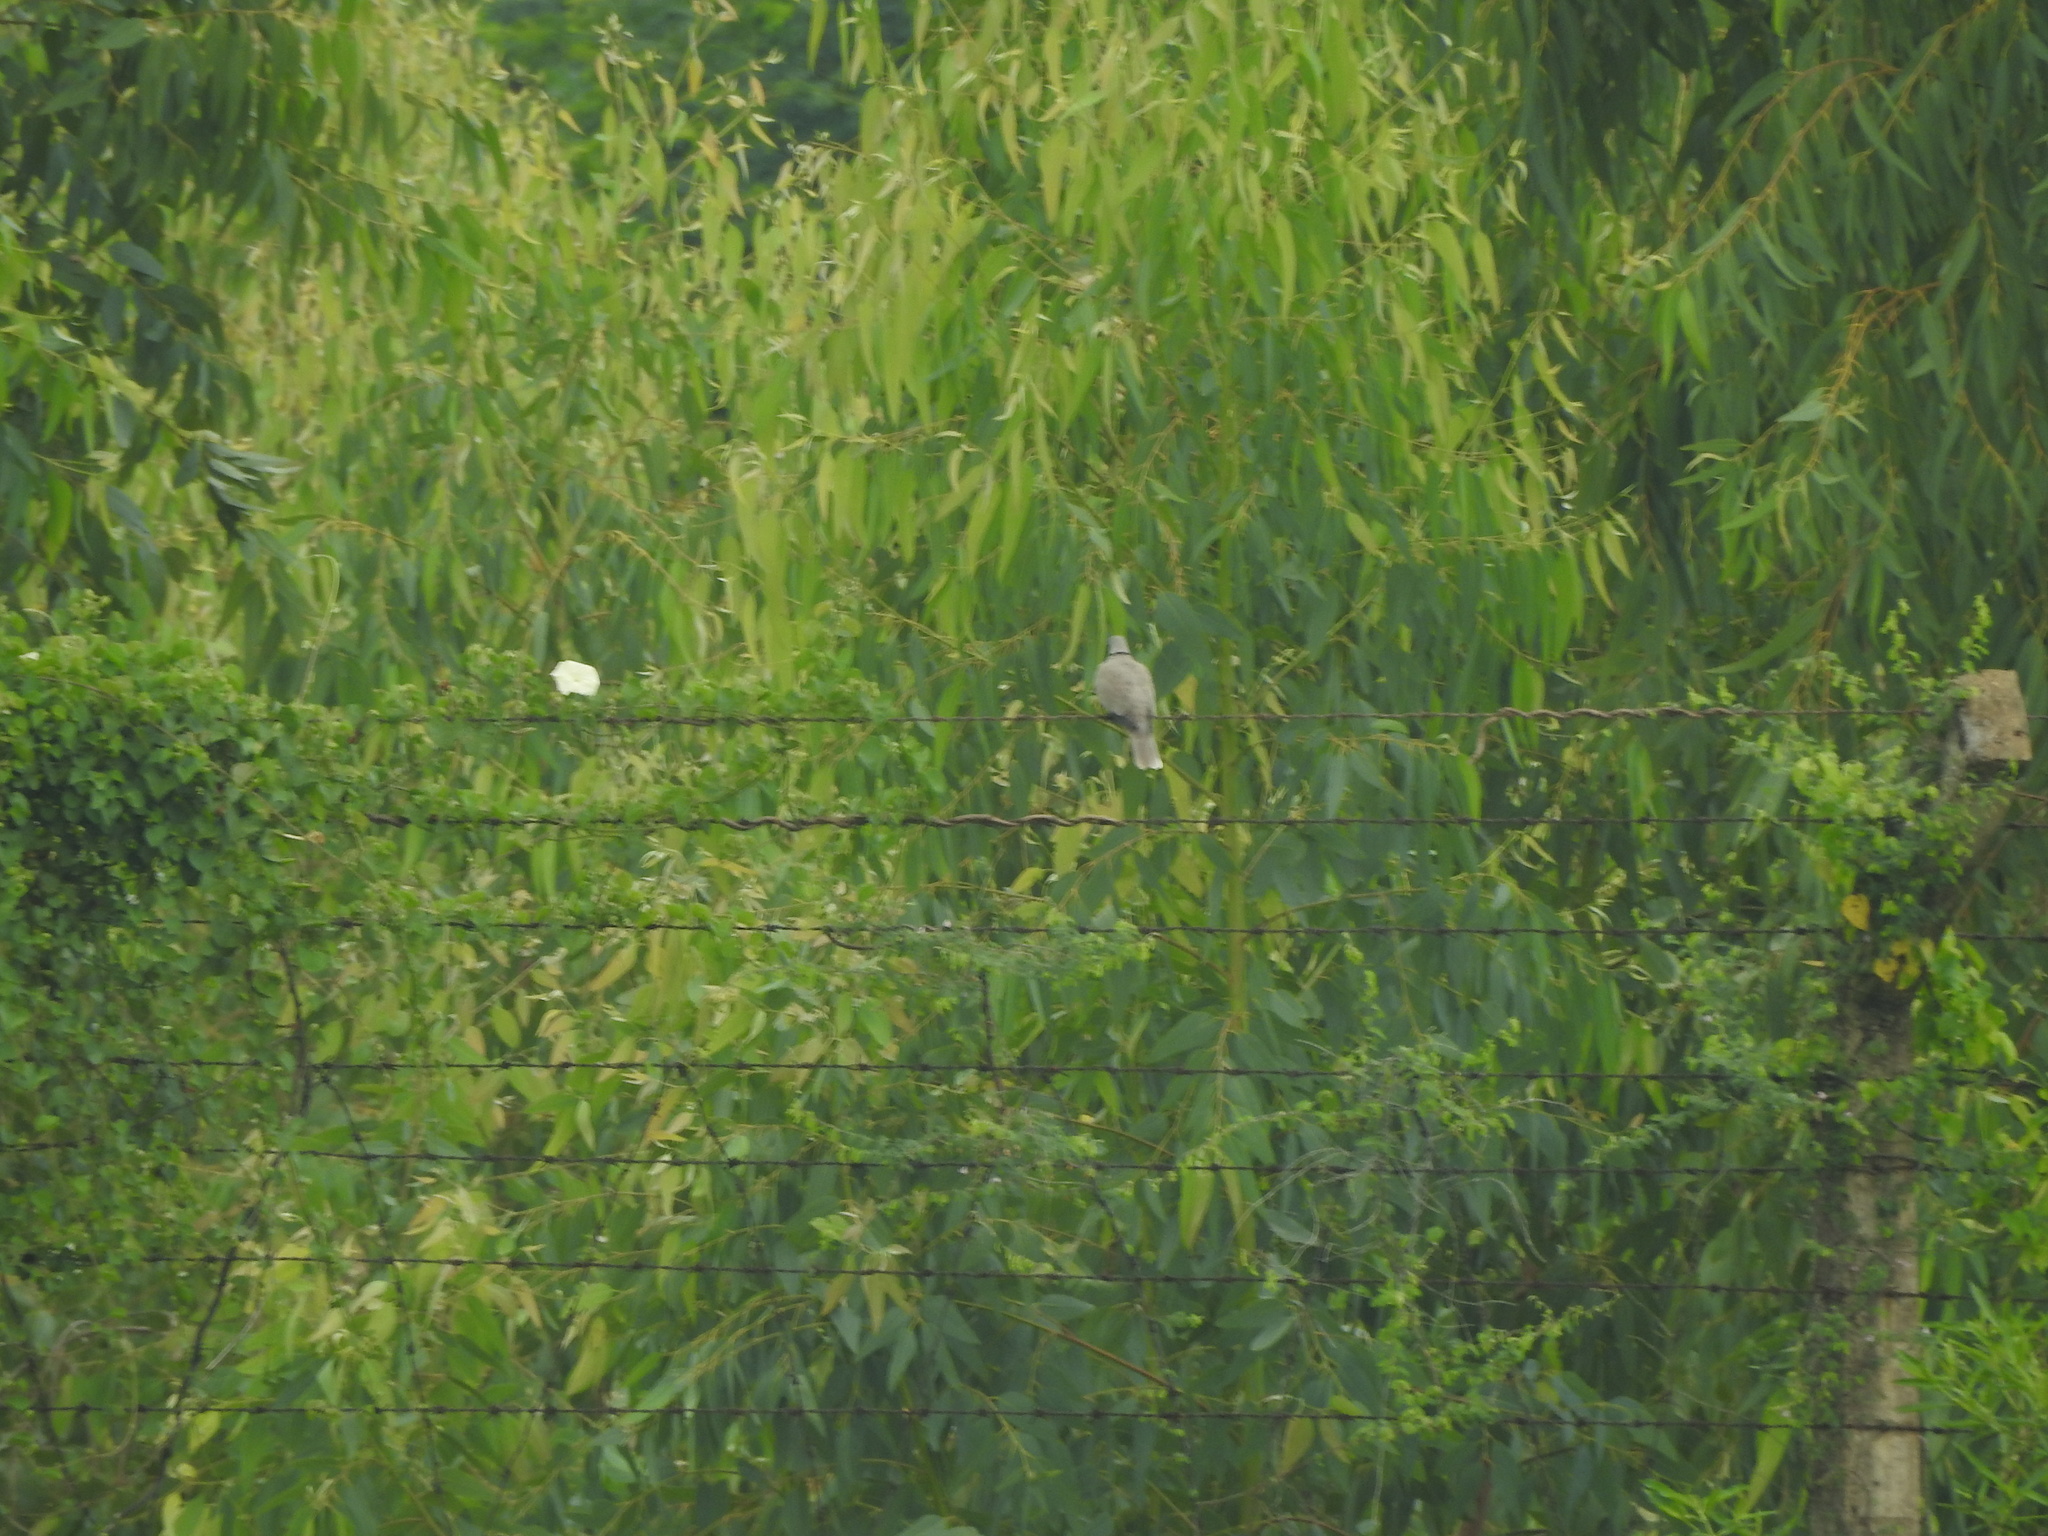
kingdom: Animalia
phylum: Chordata
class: Aves
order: Columbiformes
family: Columbidae
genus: Streptopelia
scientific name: Streptopelia decaocto
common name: Eurasian collared dove
